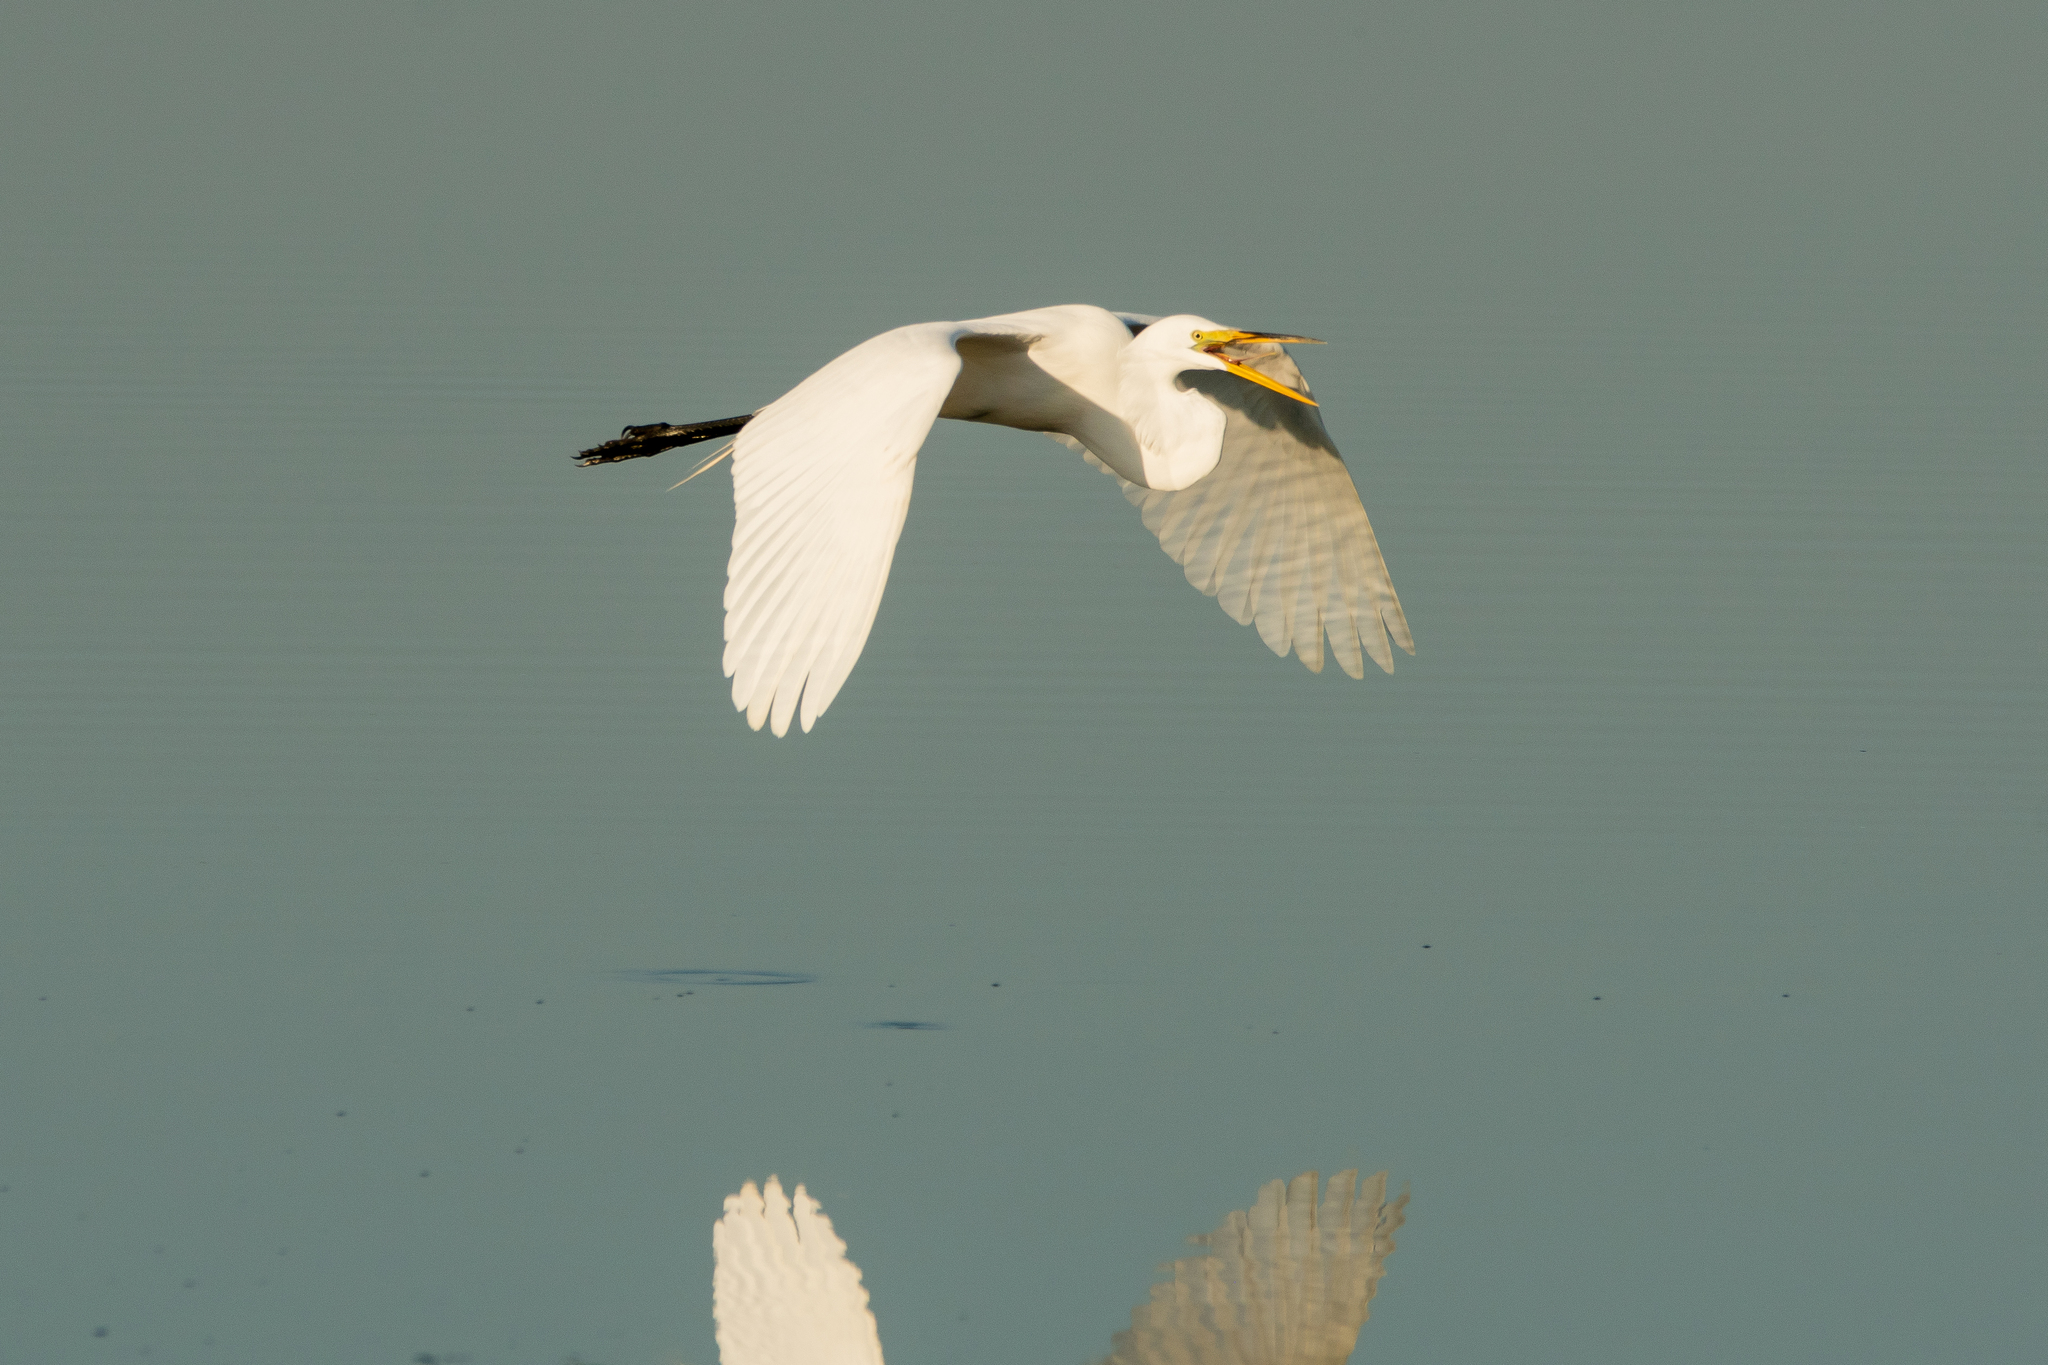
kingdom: Animalia
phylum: Chordata
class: Aves
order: Pelecaniformes
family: Ardeidae
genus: Ardea
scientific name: Ardea alba
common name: Great egret
